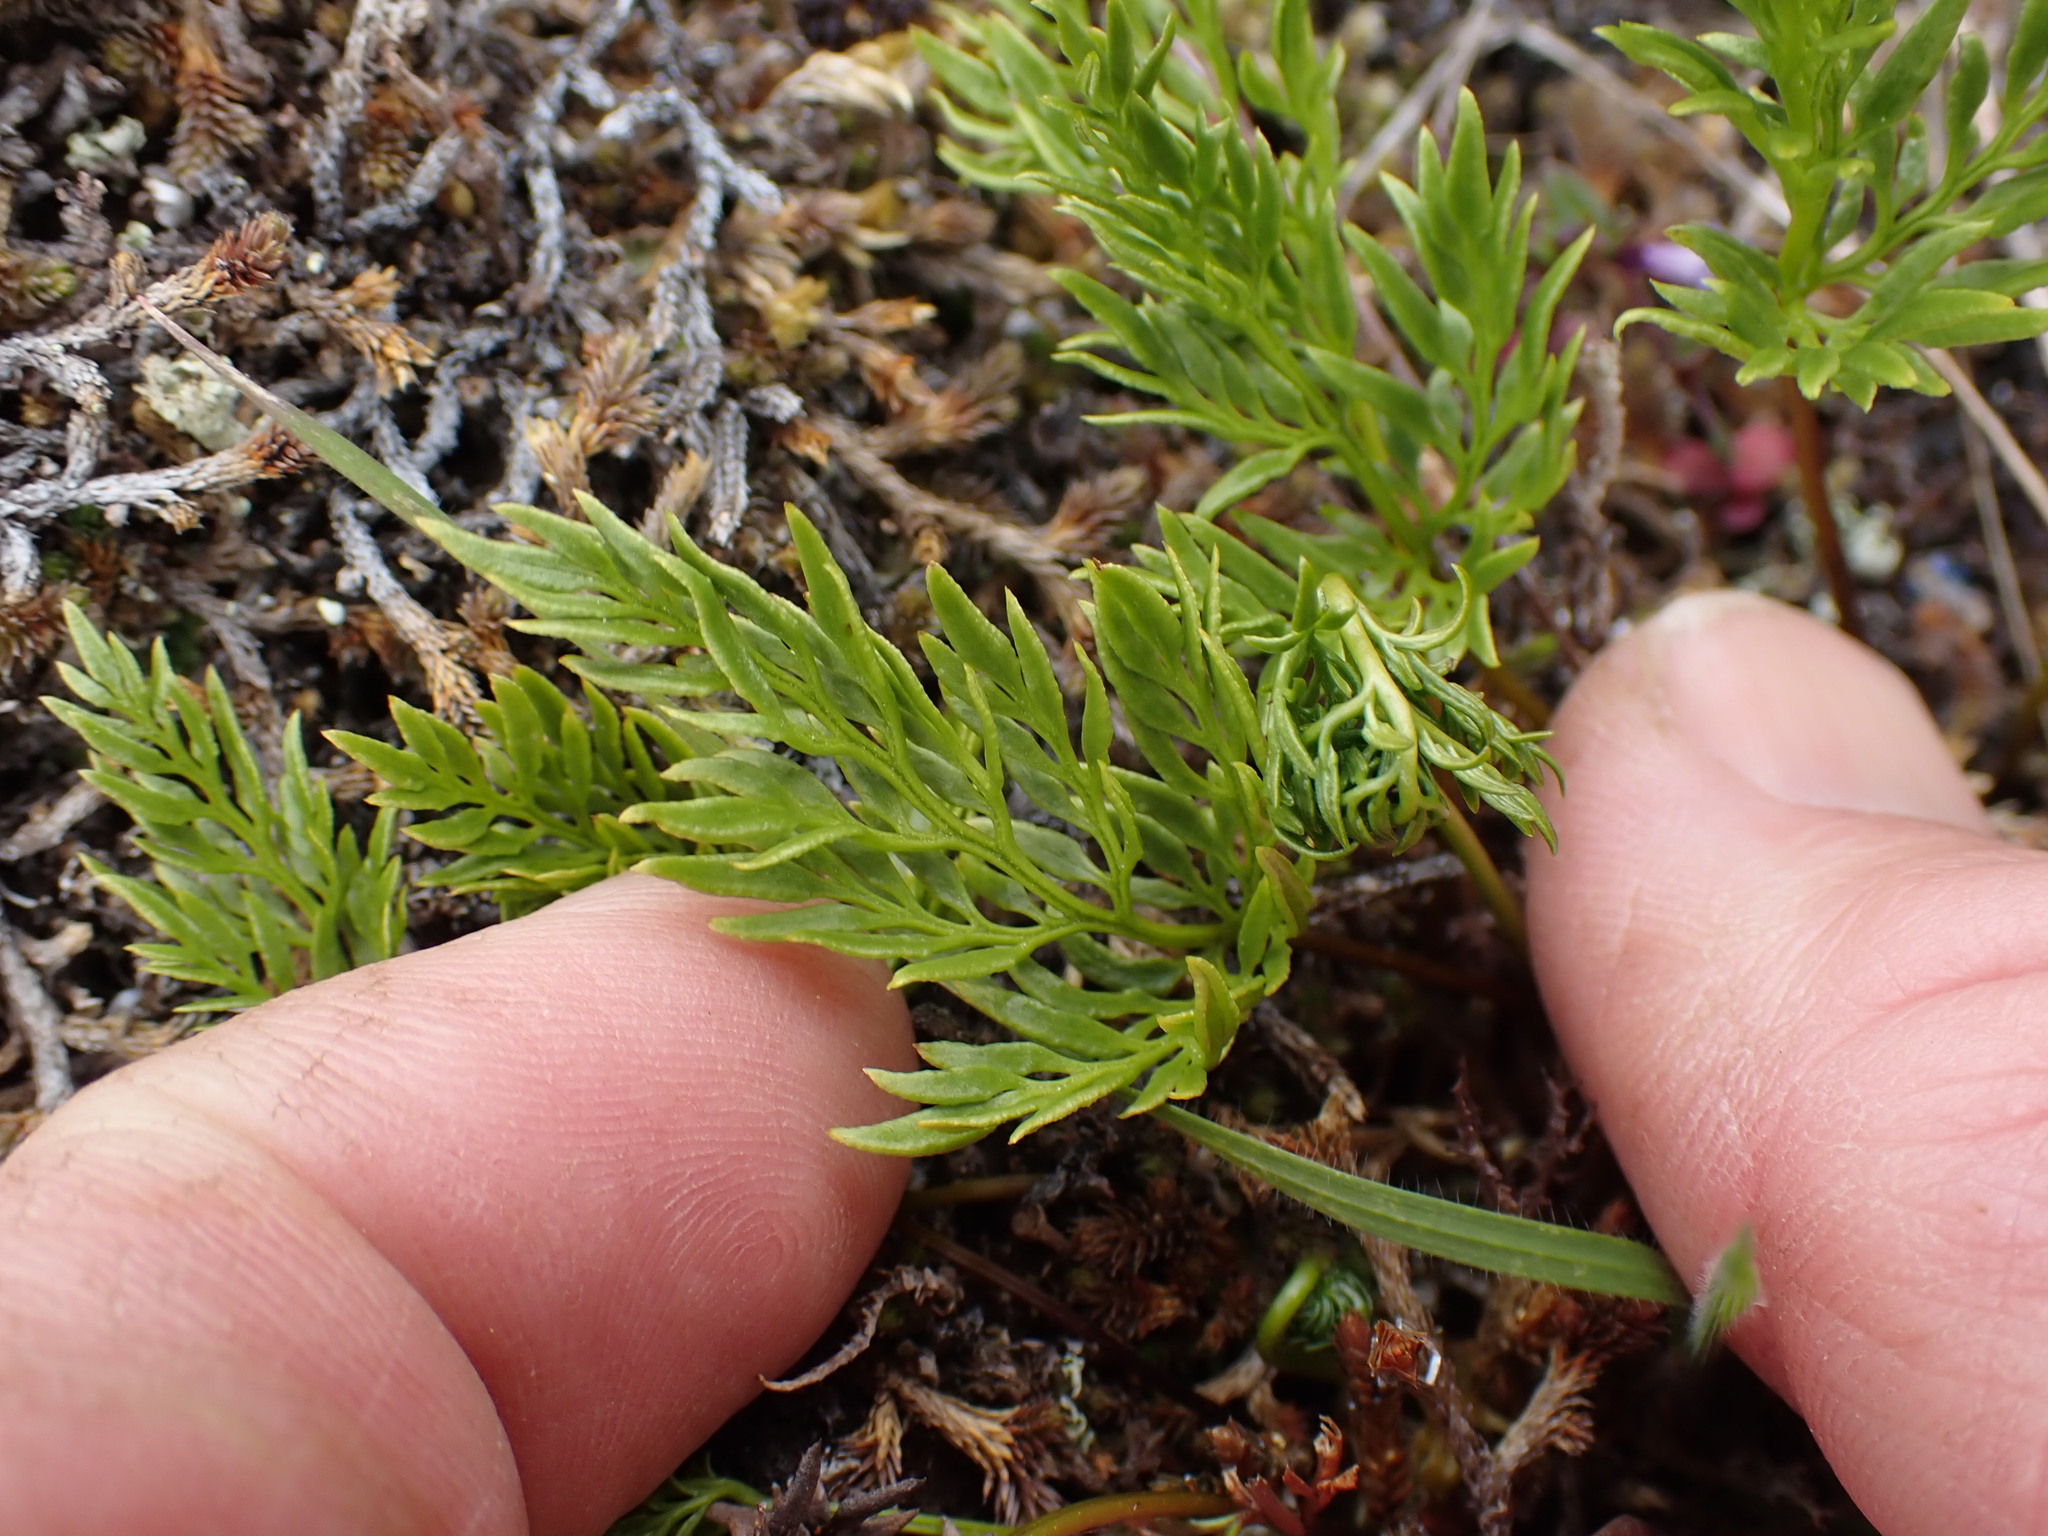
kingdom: Plantae
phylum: Tracheophyta
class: Polypodiopsida
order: Polypodiales
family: Pteridaceae
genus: Aspidotis
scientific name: Aspidotis densa
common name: Indian's dream
